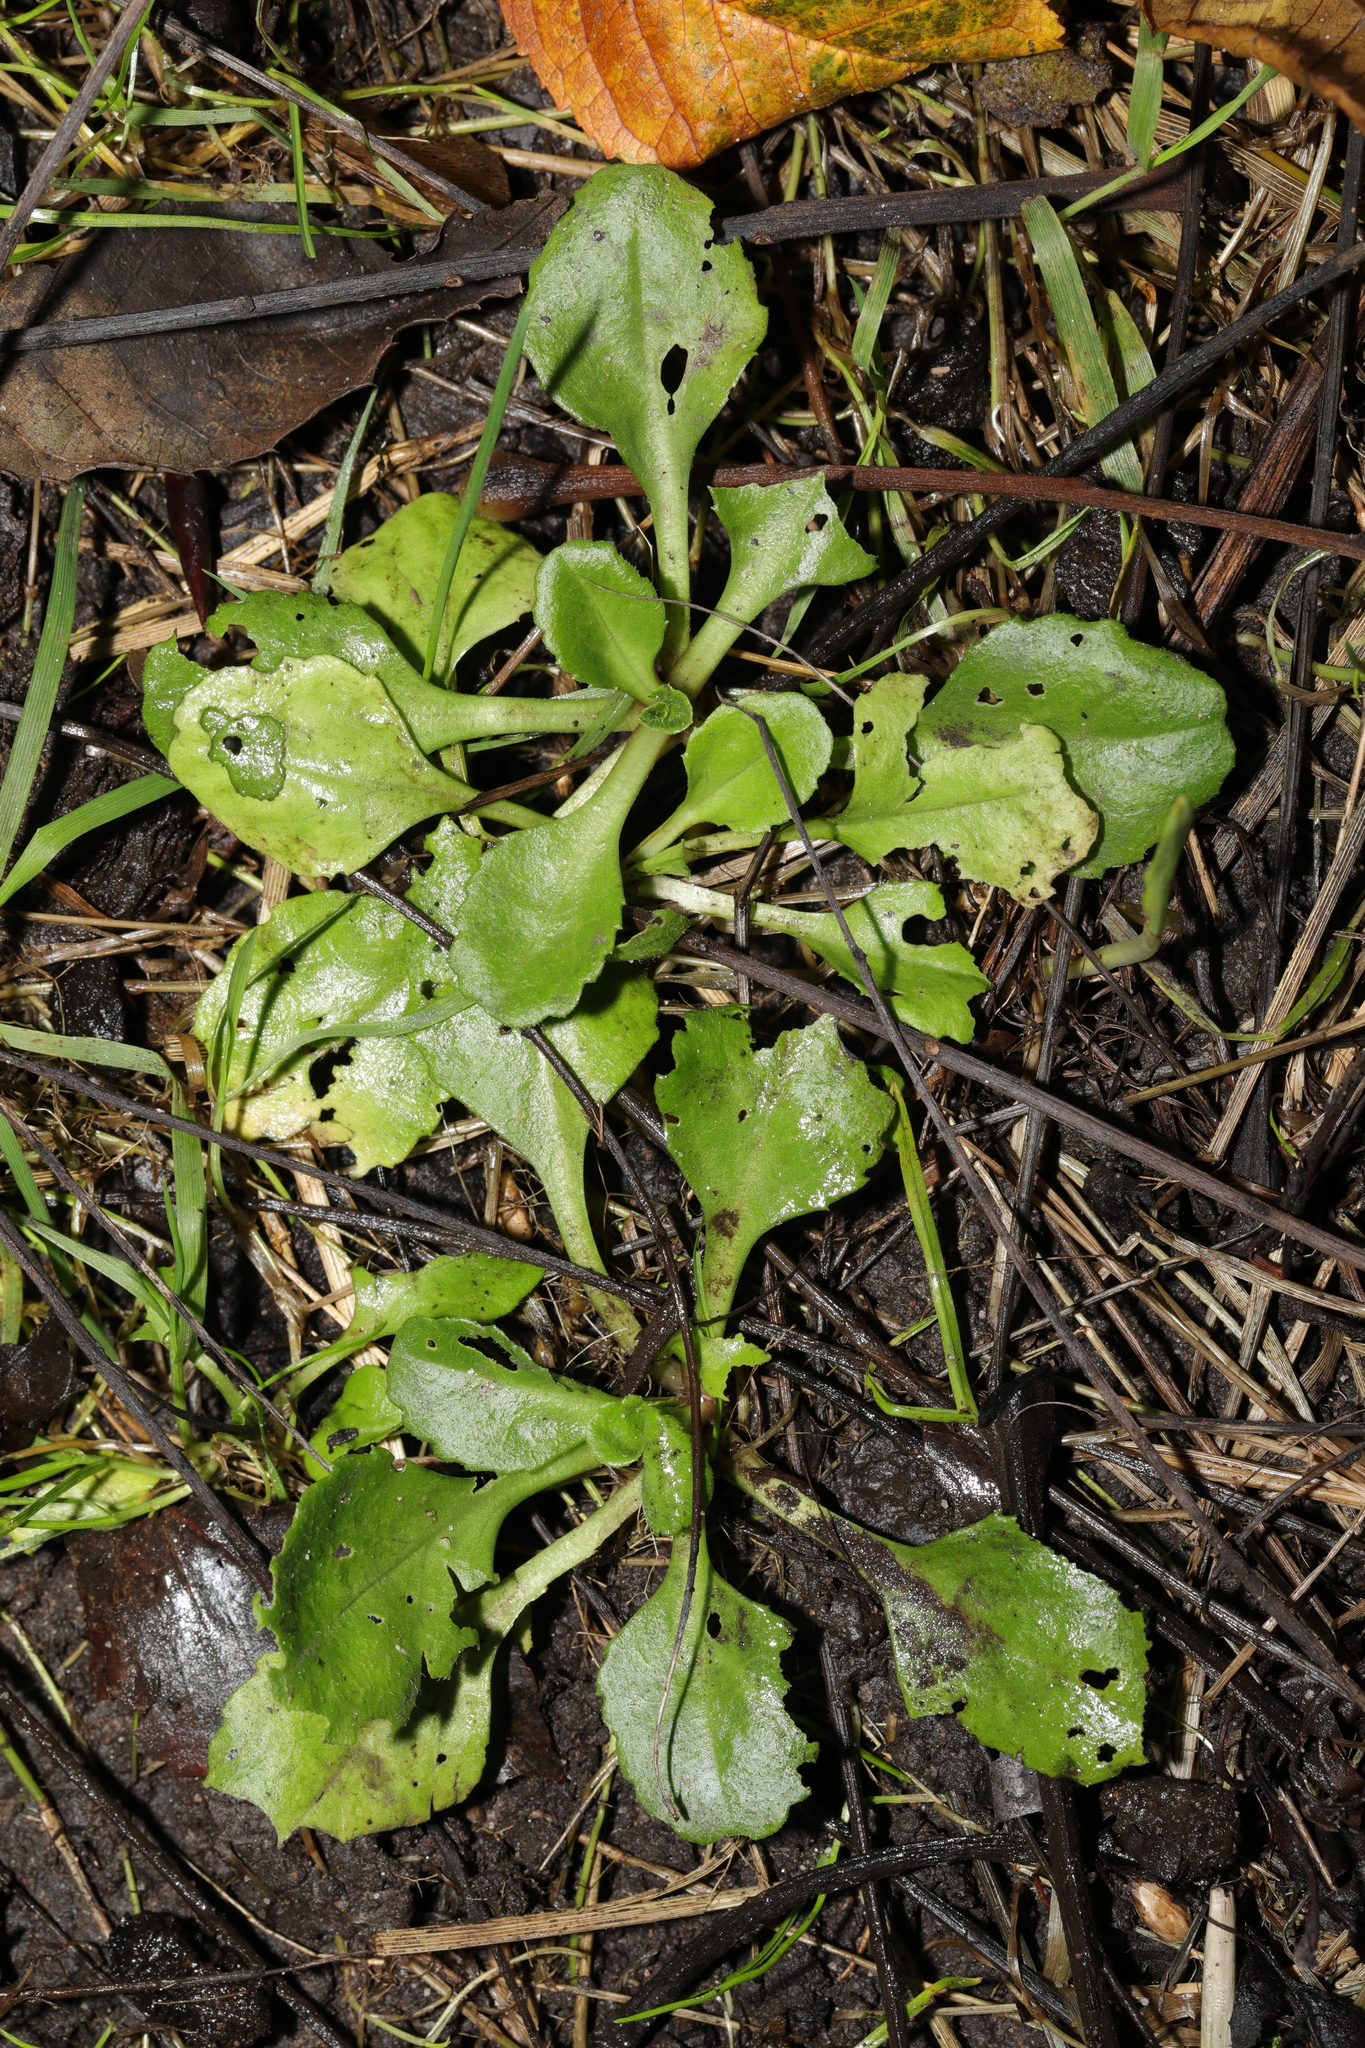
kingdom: Plantae
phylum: Tracheophyta
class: Magnoliopsida
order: Asterales
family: Asteraceae
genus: Bellis
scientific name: Bellis perennis
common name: Lawndaisy
